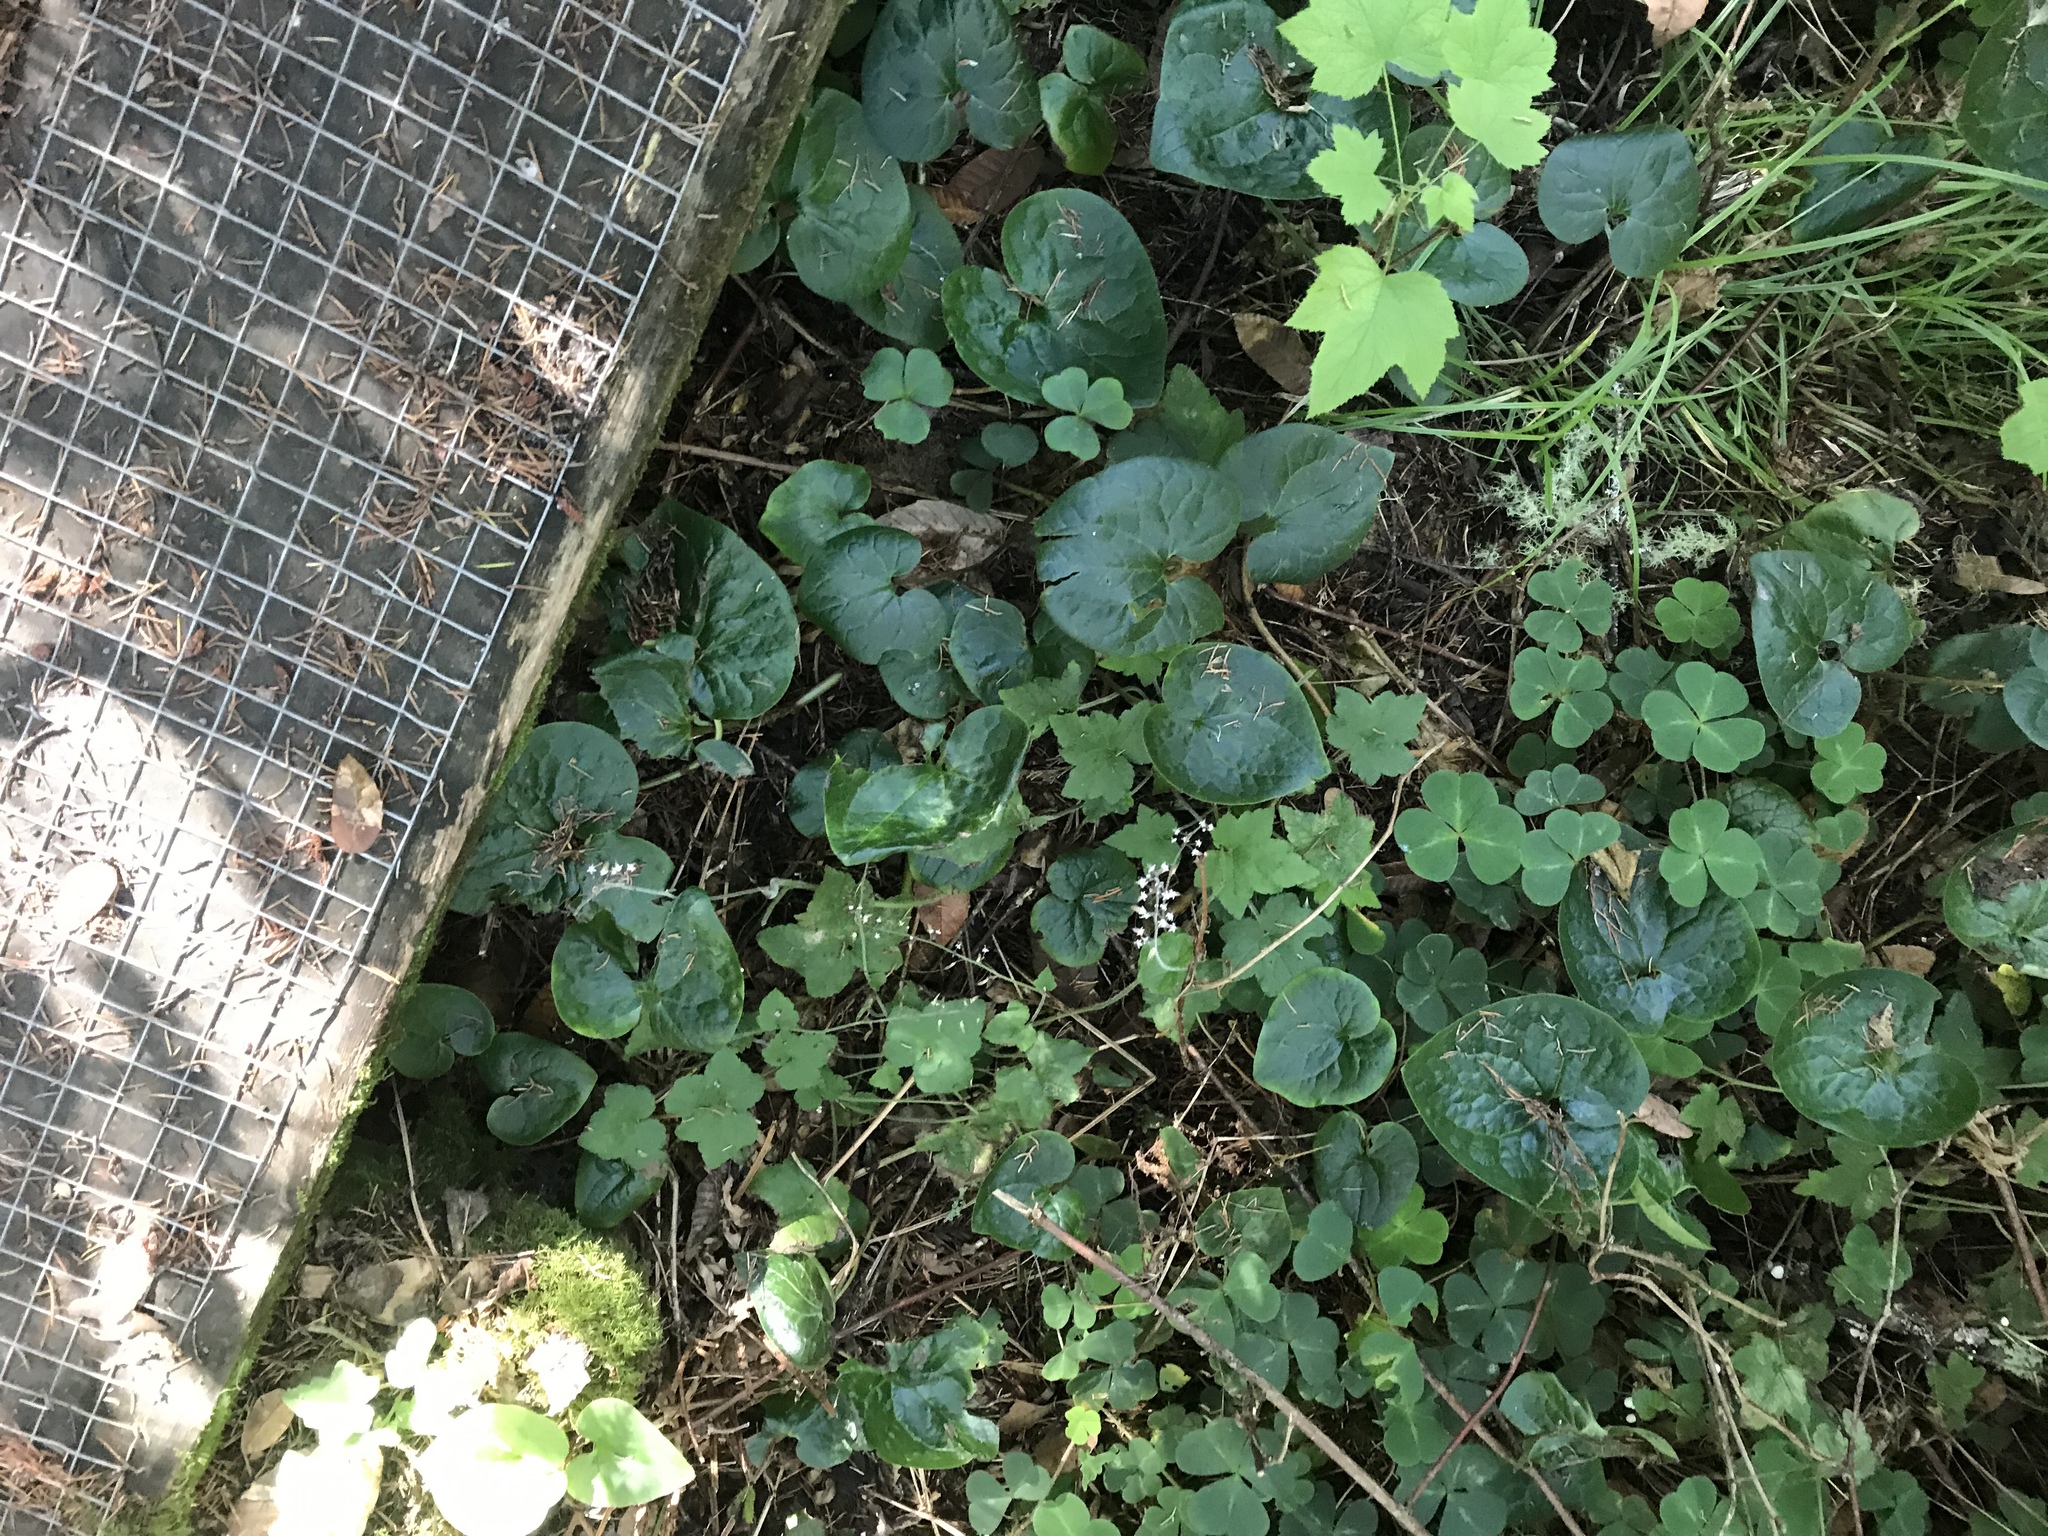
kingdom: Plantae
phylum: Tracheophyta
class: Magnoliopsida
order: Piperales
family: Aristolochiaceae
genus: Asarum
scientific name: Asarum caudatum
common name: Wild ginger
